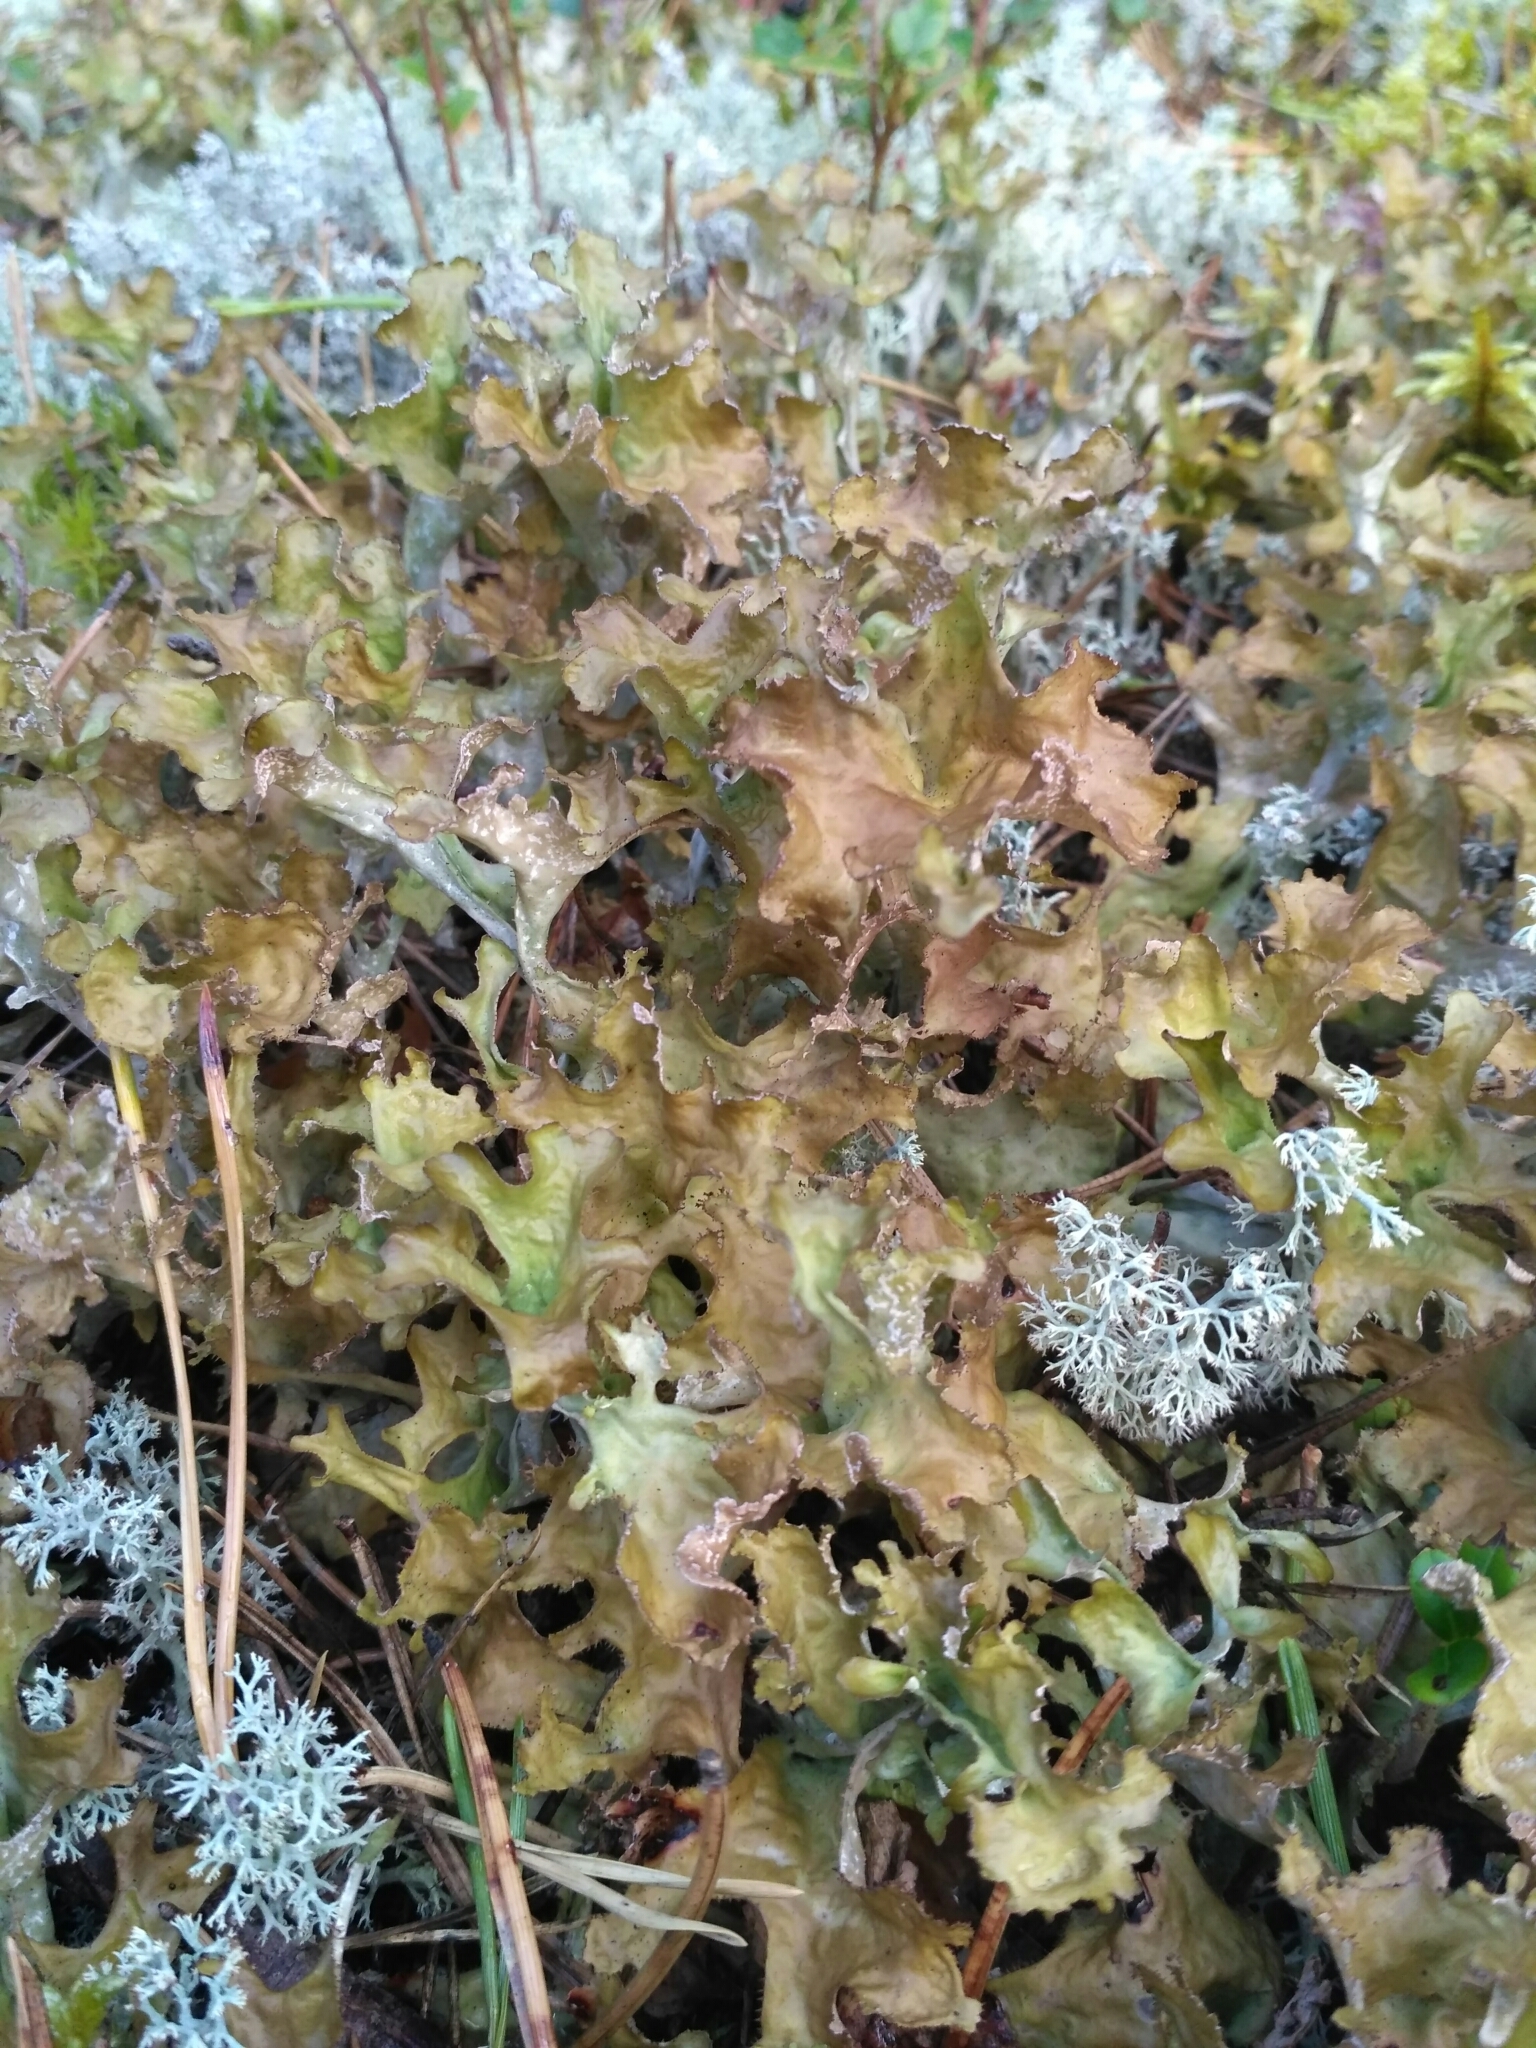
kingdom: Fungi
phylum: Ascomycota
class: Lecanoromycetes
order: Lecanorales
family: Parmeliaceae
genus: Cetraria
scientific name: Cetraria islandica
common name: Iceland lichen
